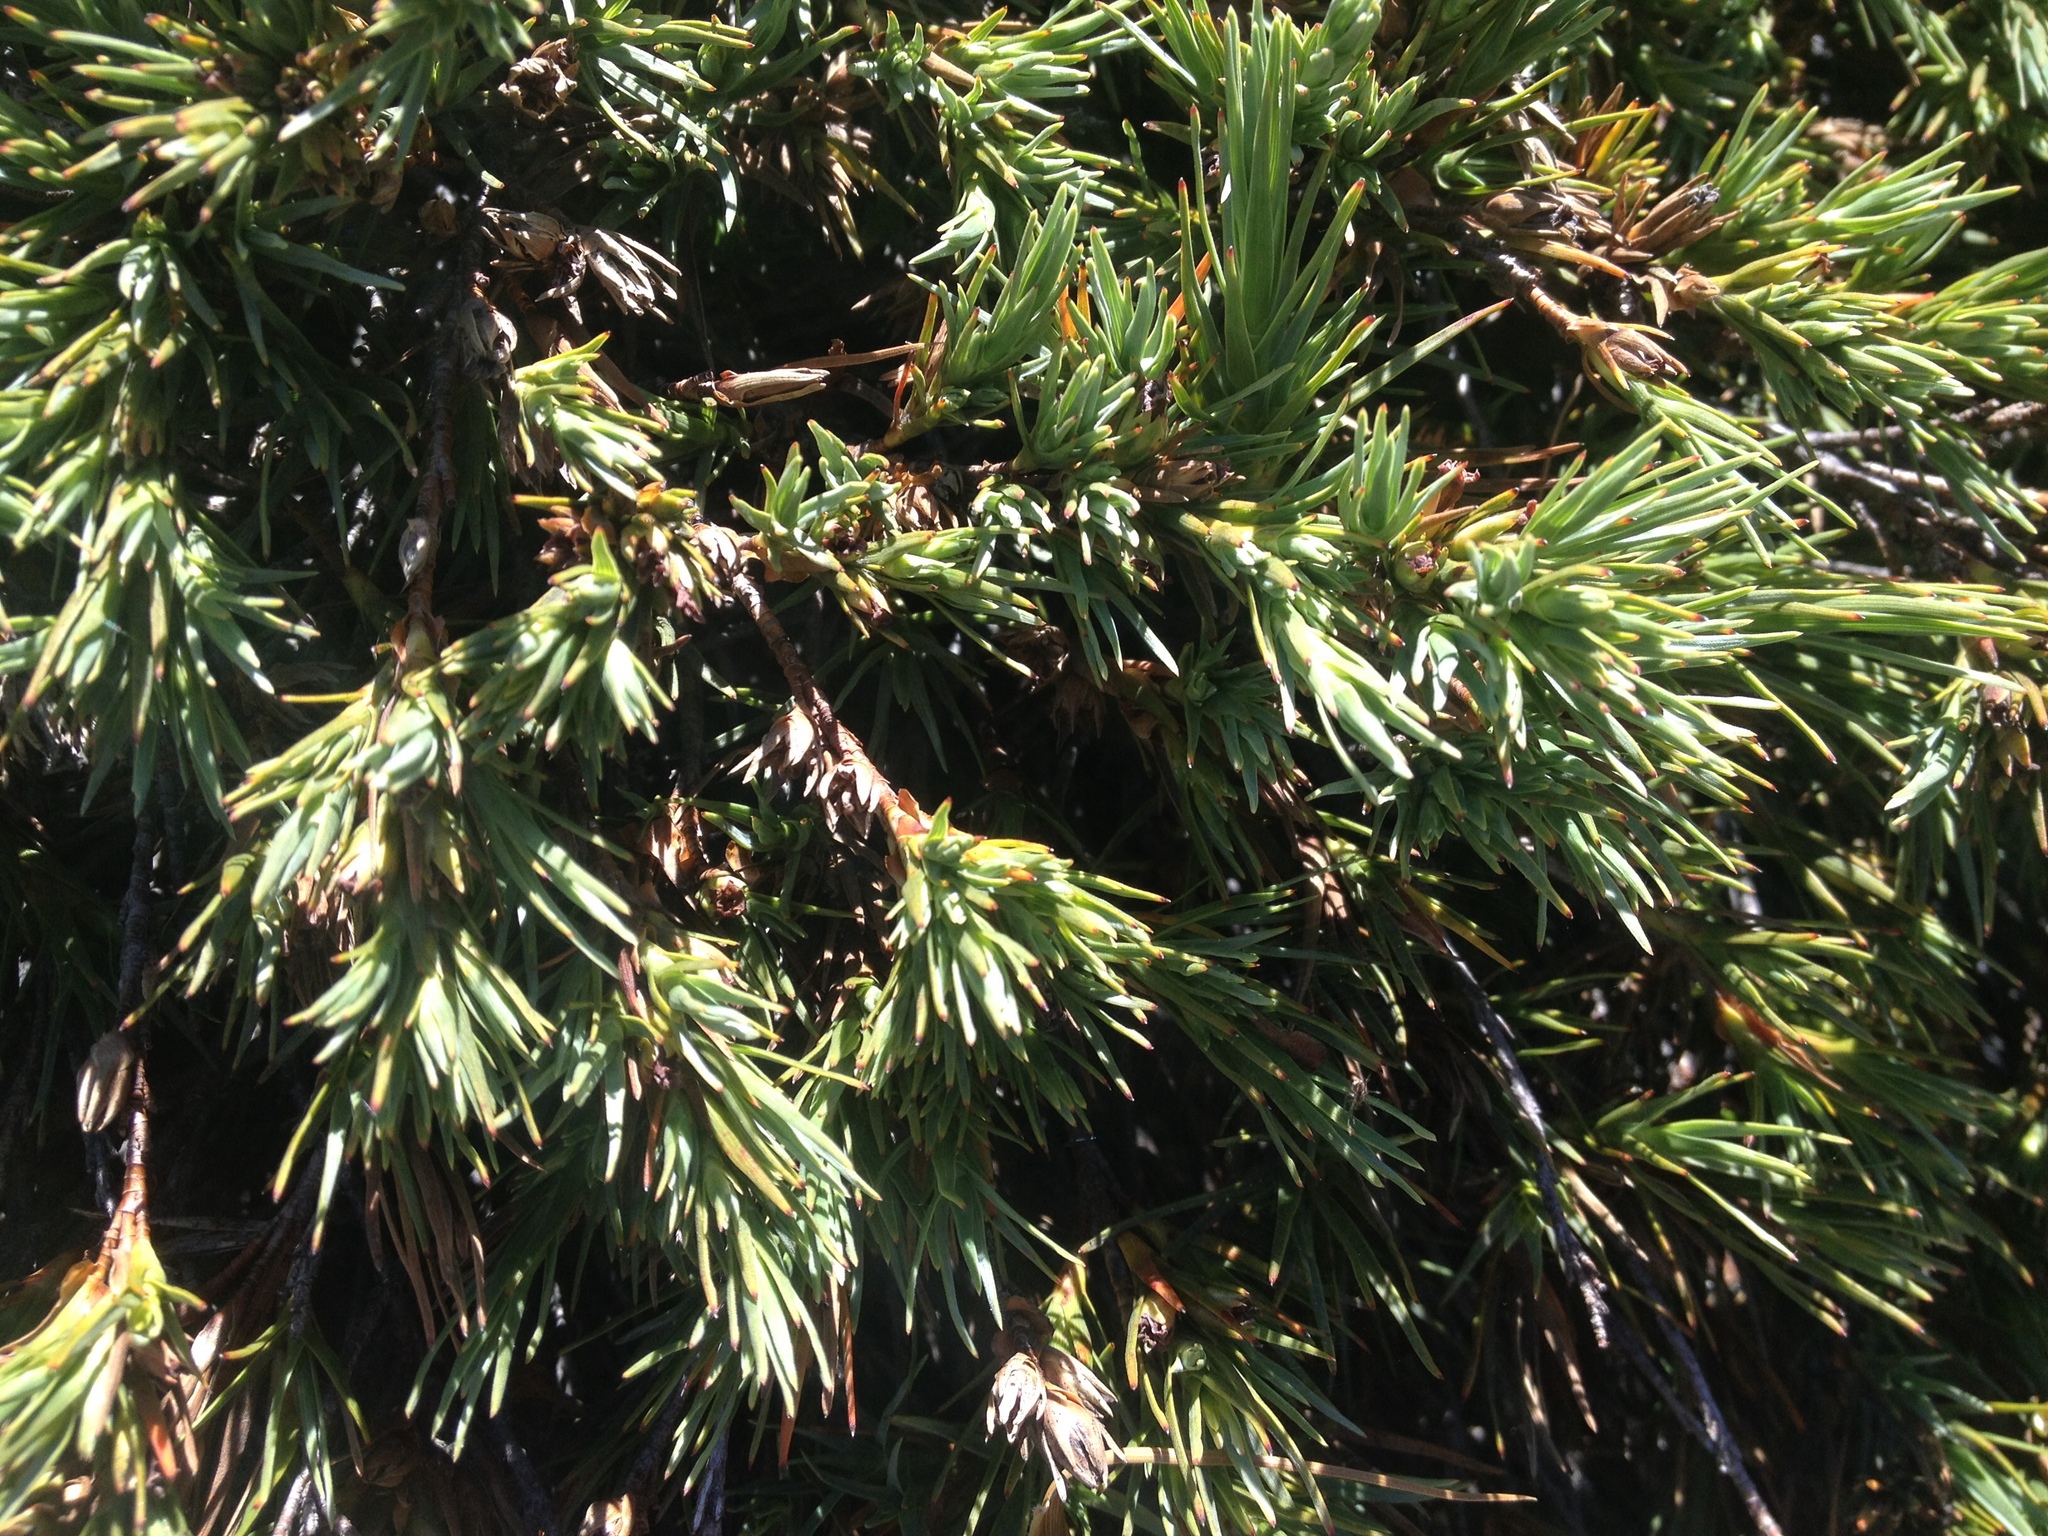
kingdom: Plantae
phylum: Tracheophyta
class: Magnoliopsida
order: Ericales
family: Ericaceae
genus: Dracophyllum
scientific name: Dracophyllum kirkii
